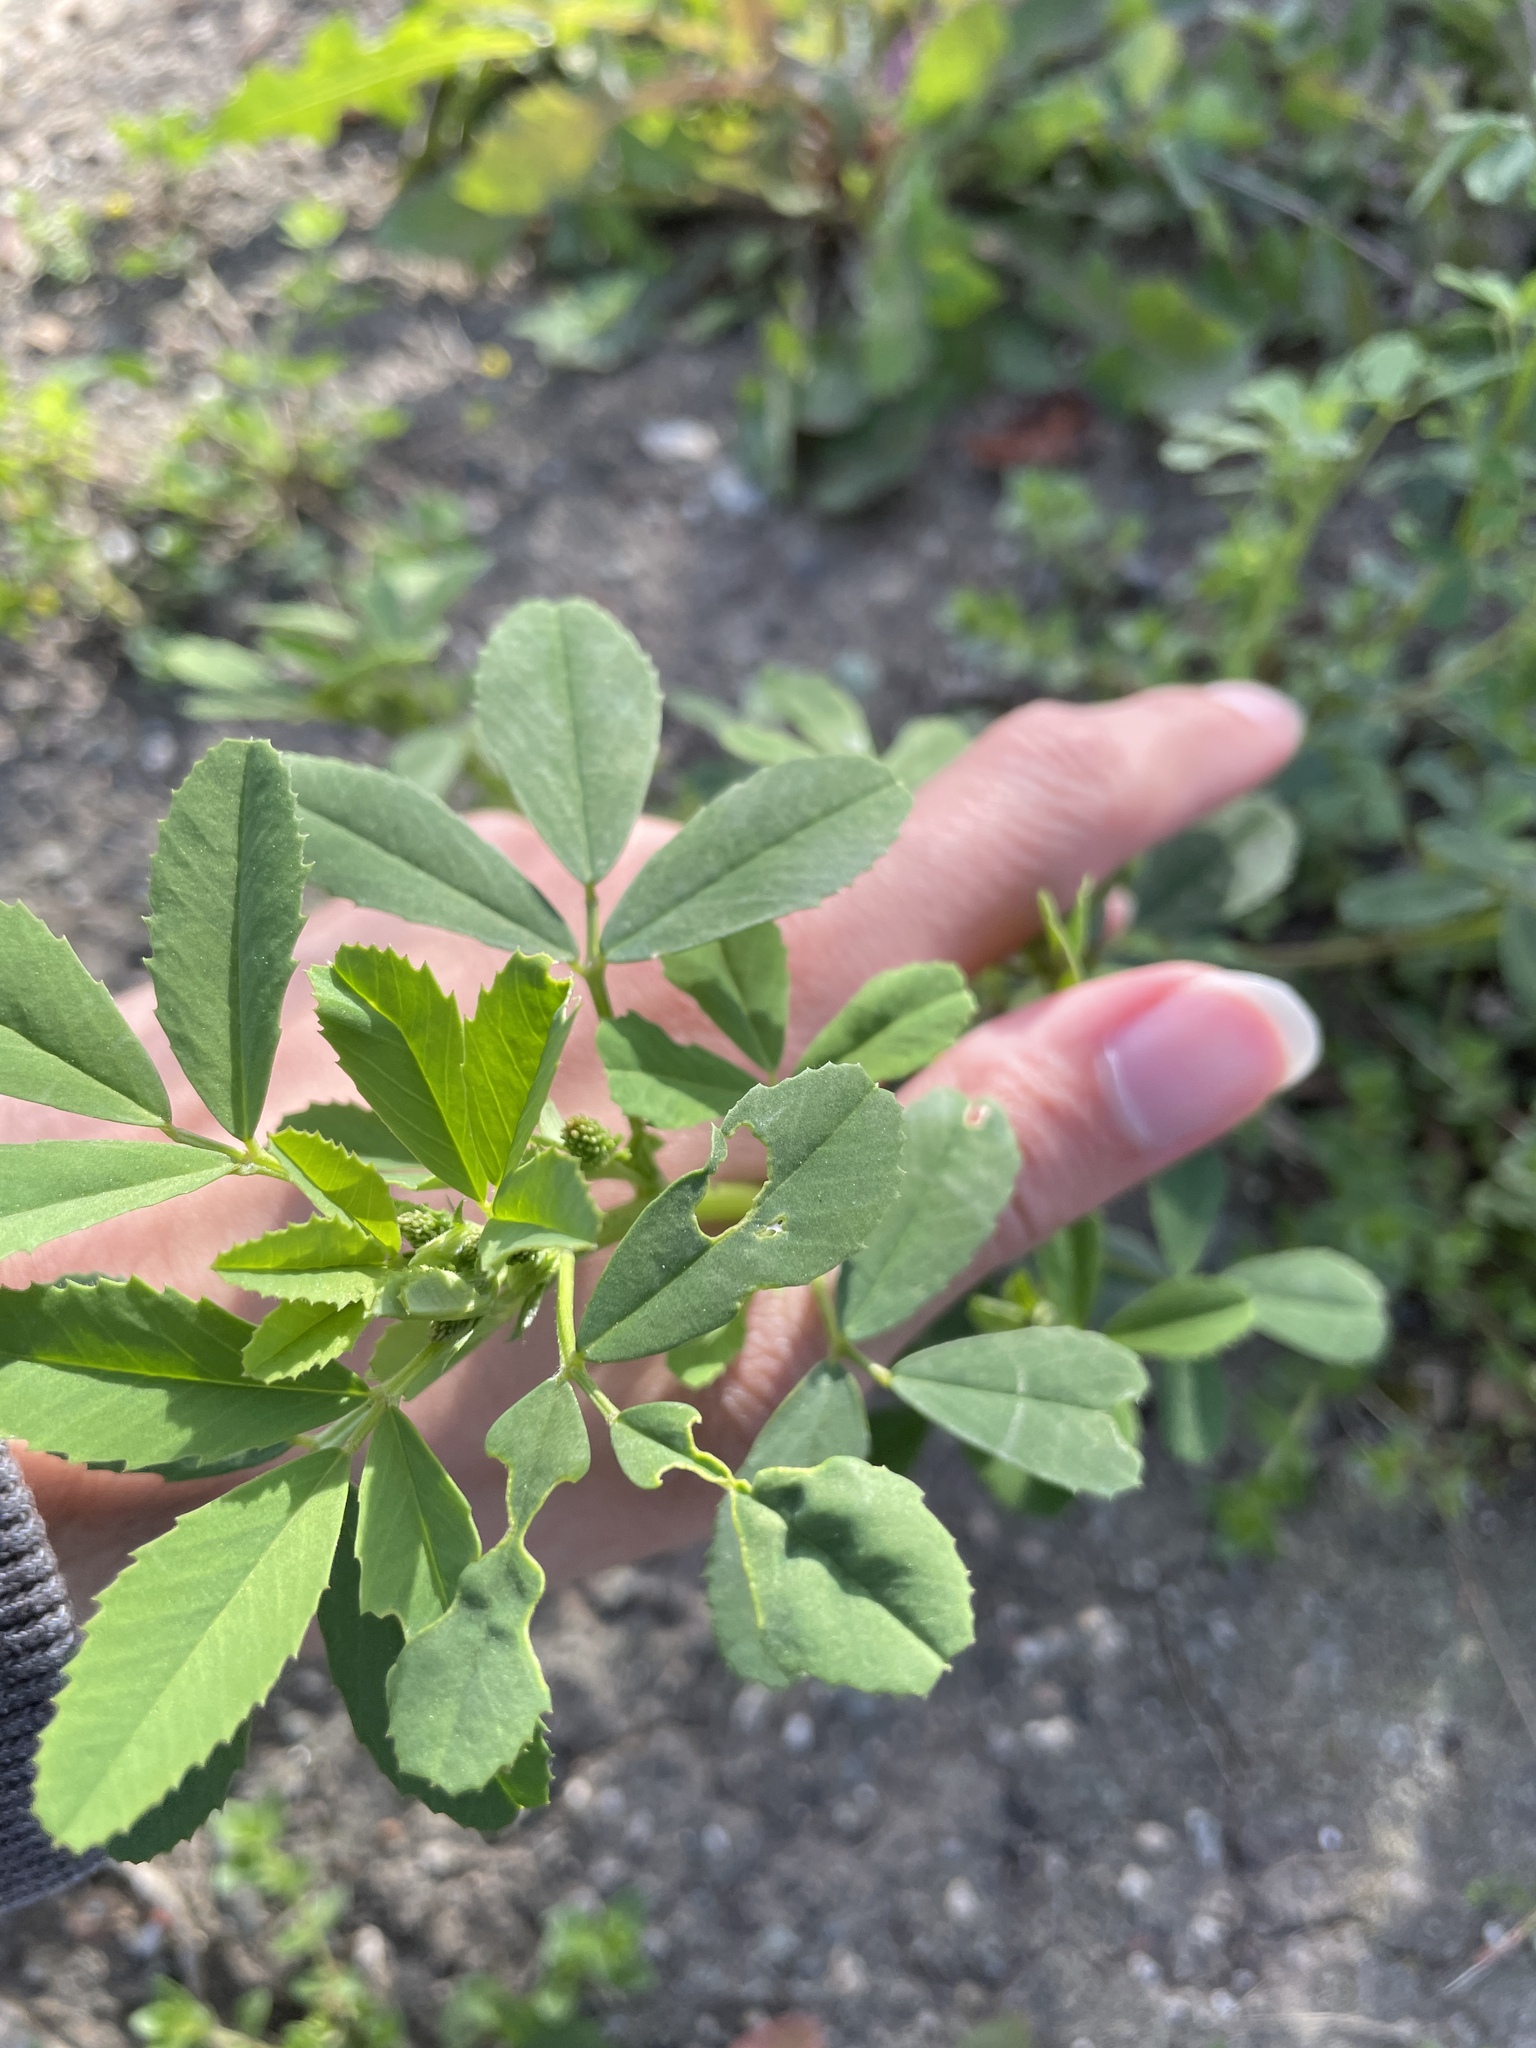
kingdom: Plantae
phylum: Tracheophyta
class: Magnoliopsida
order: Fabales
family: Fabaceae
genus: Melilotus
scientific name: Melilotus indicus
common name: Small melilot
